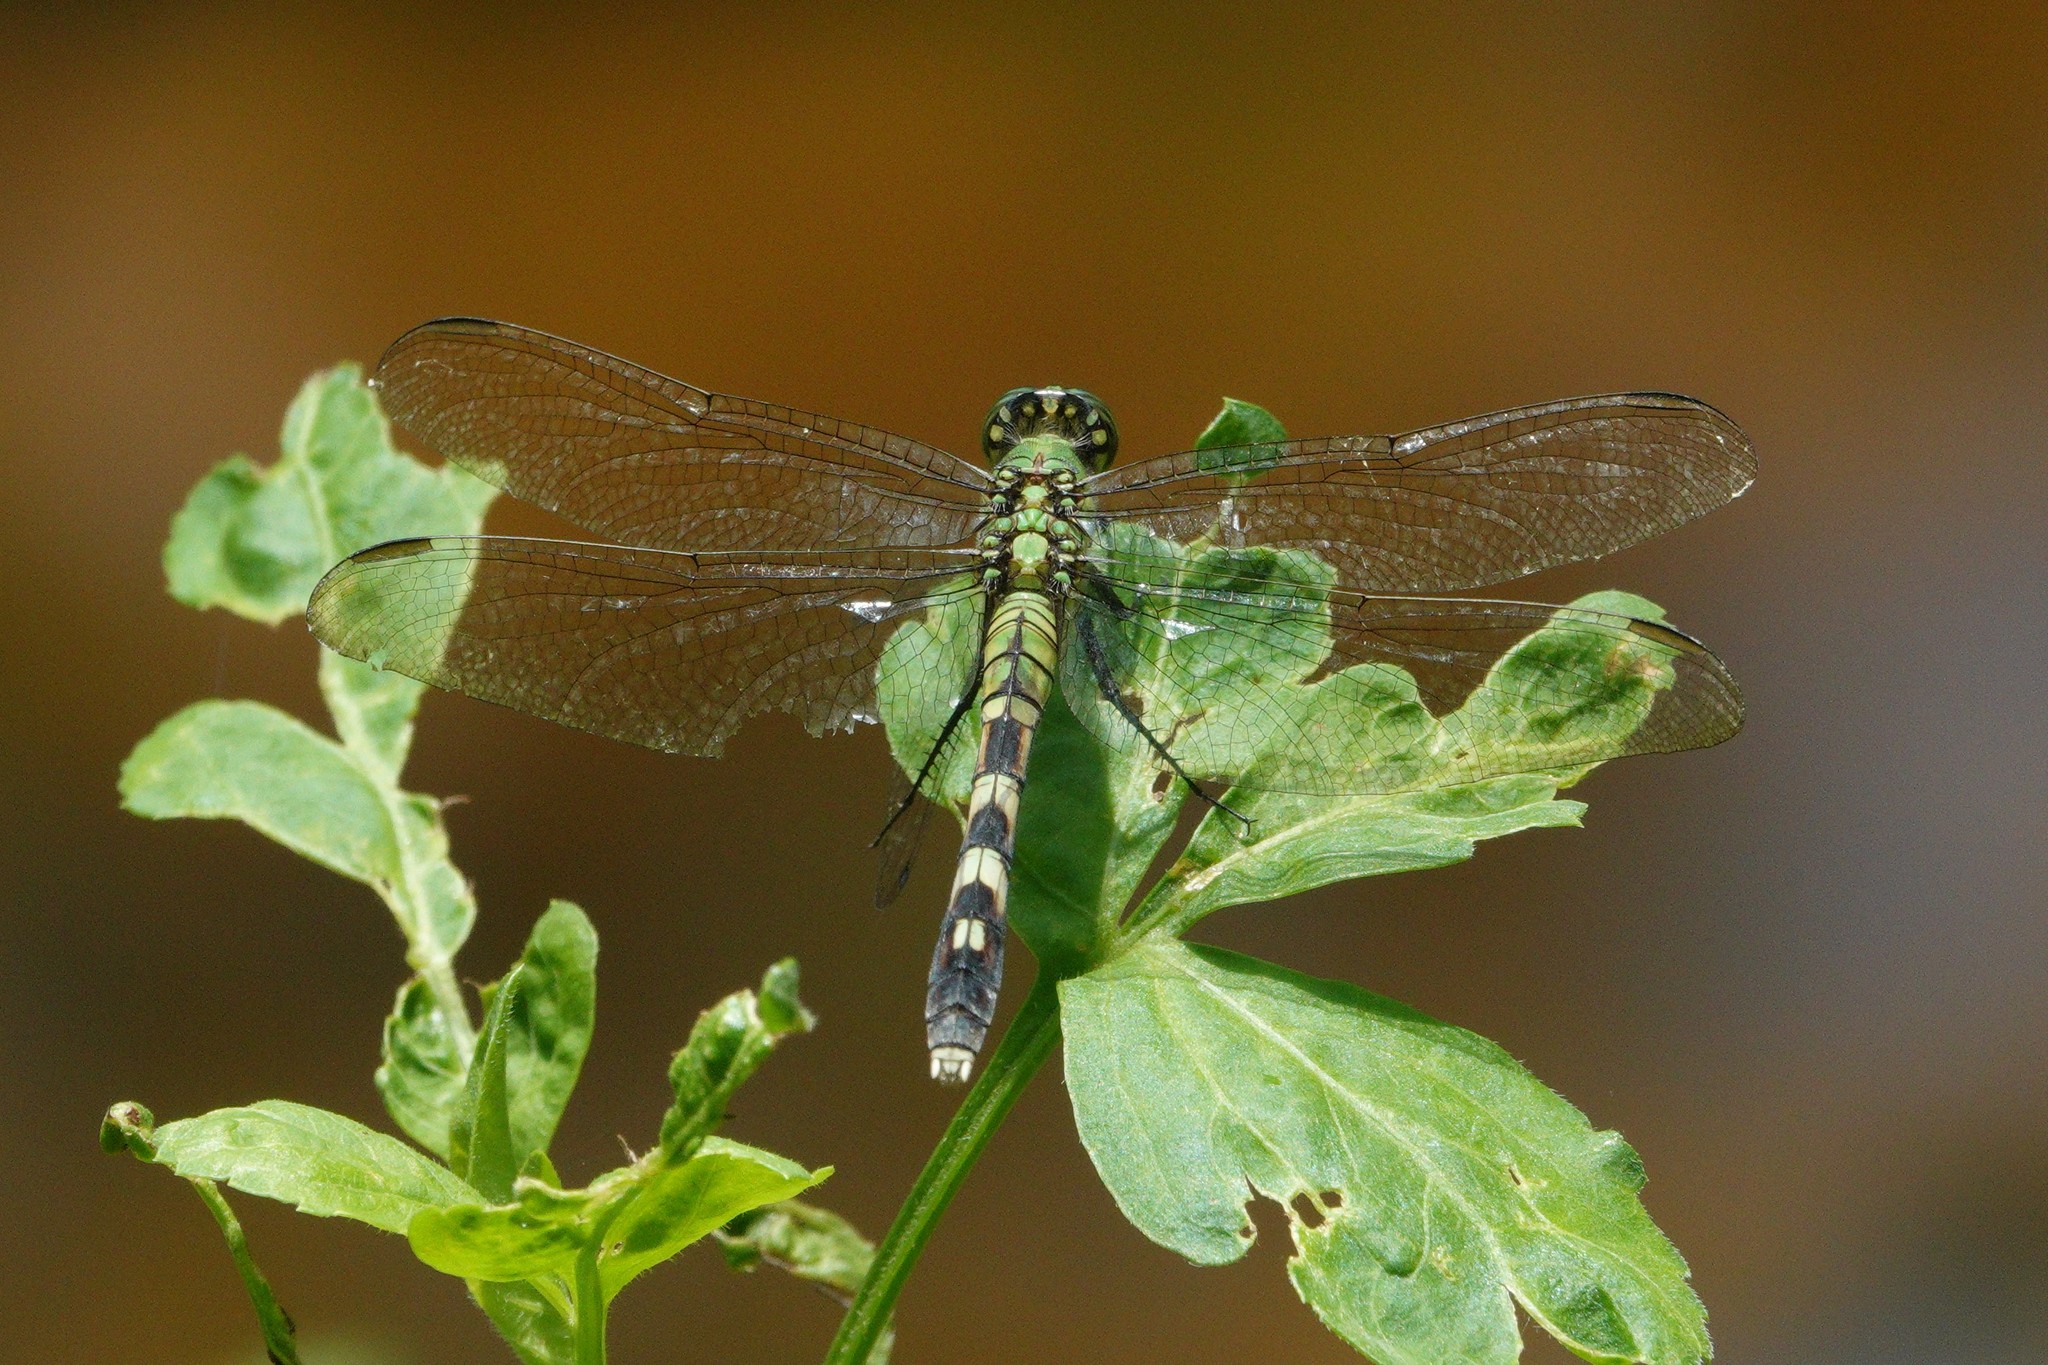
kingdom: Animalia
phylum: Arthropoda
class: Insecta
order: Odonata
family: Libellulidae
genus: Erythemis
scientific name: Erythemis simplicicollis
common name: Eastern pondhawk
